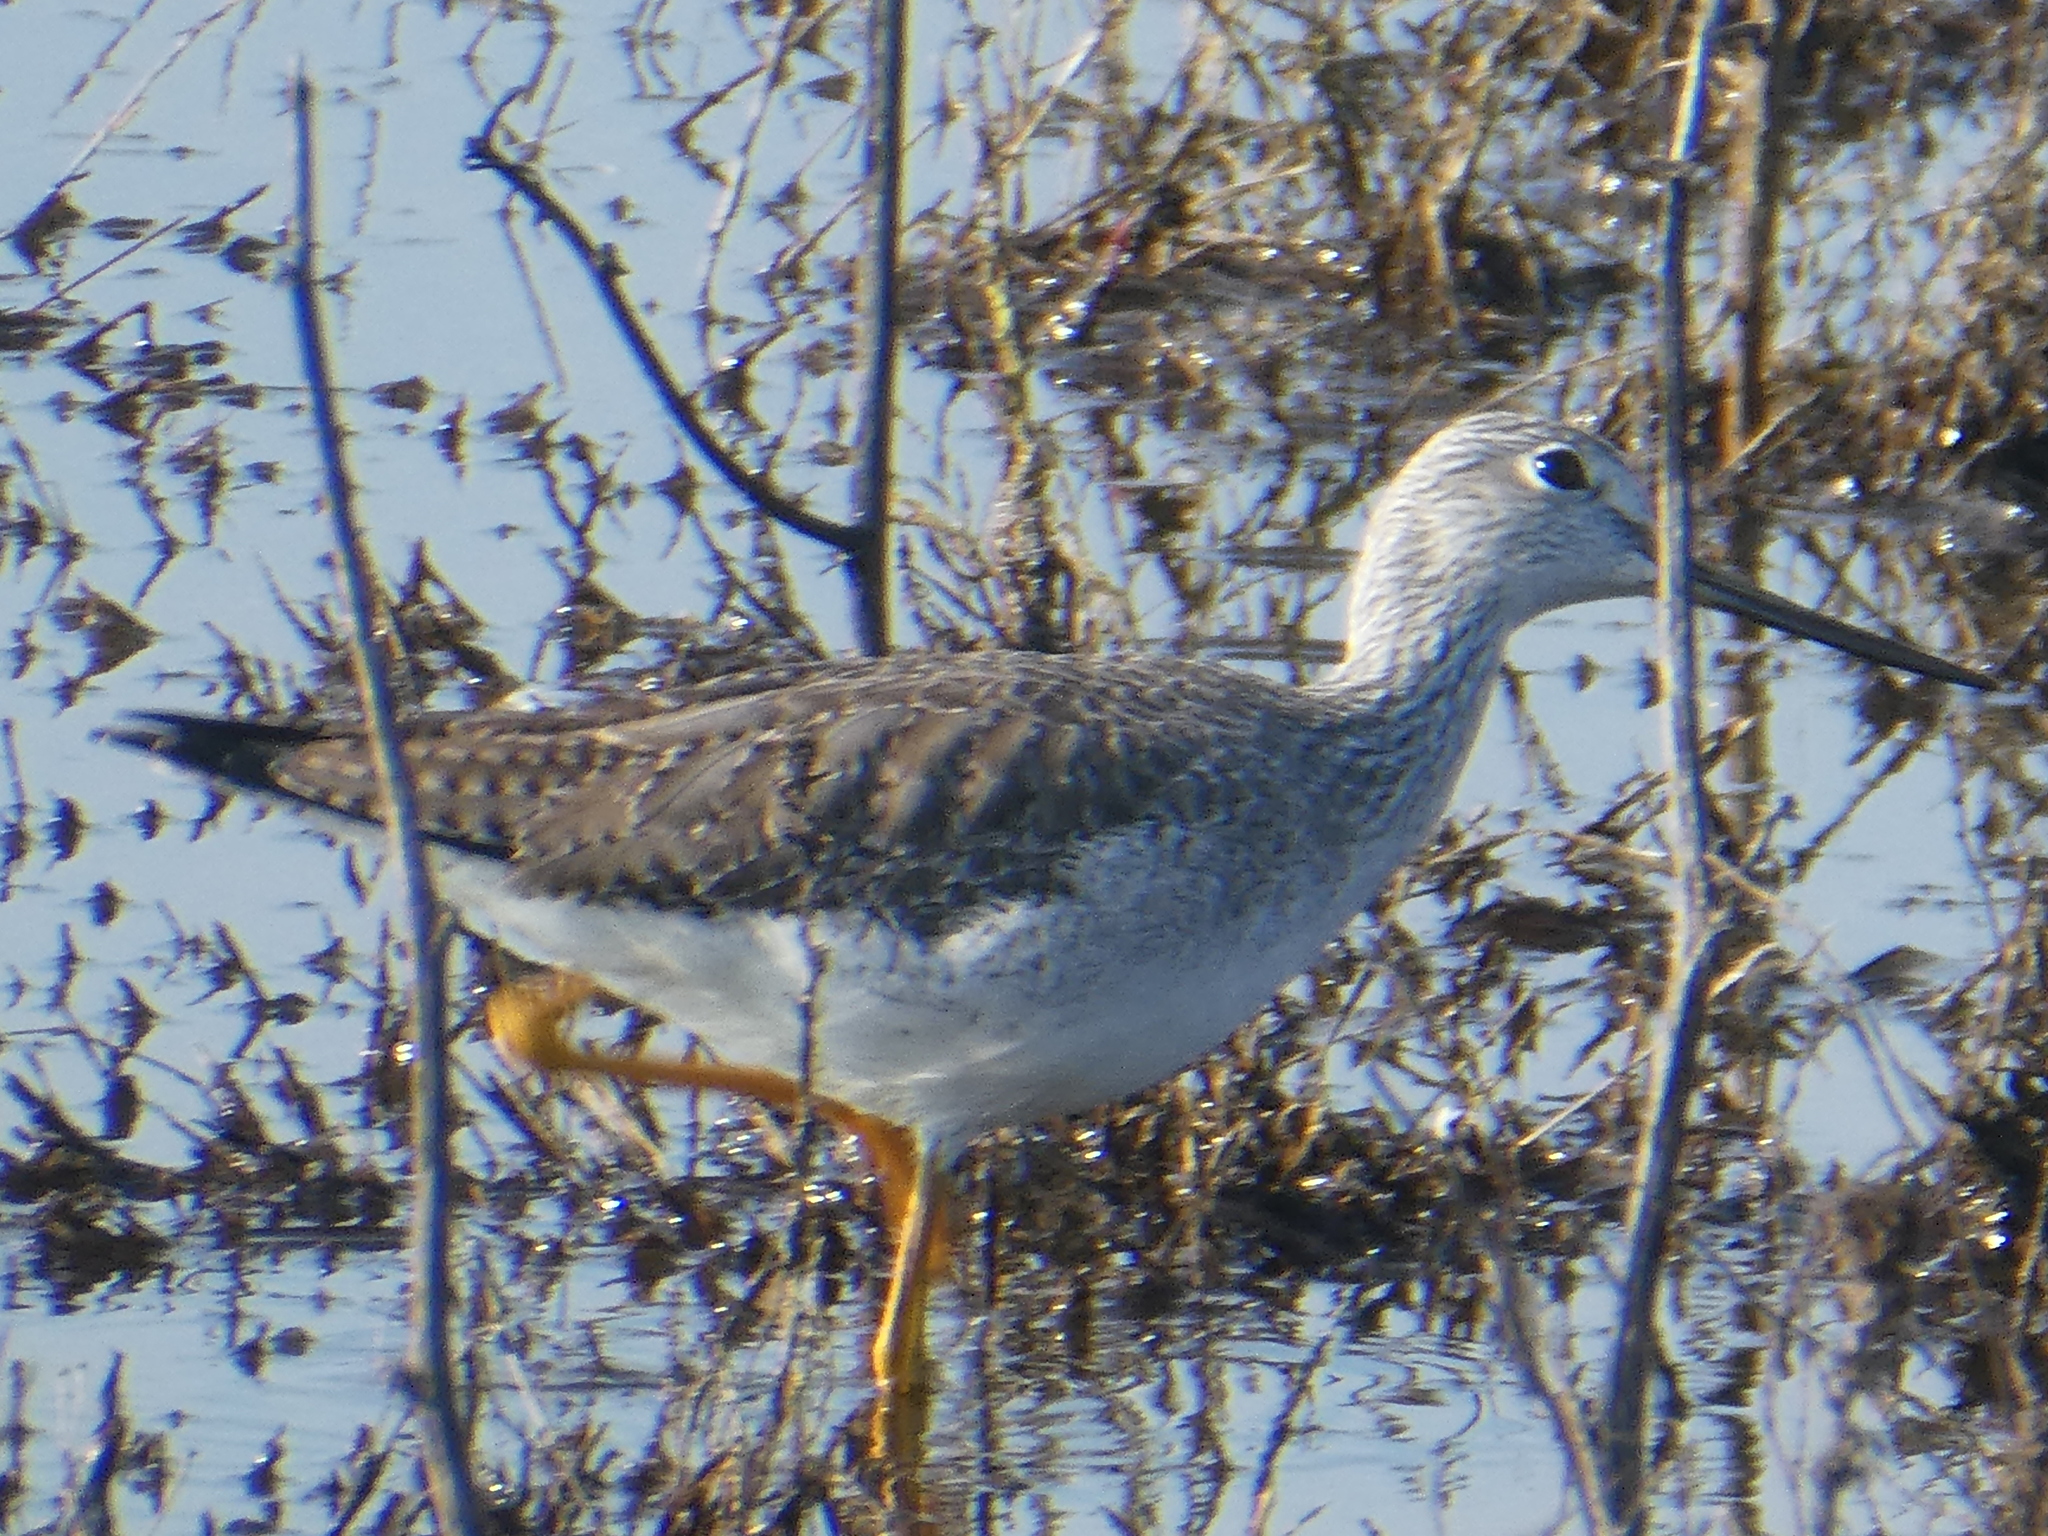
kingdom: Animalia
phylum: Chordata
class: Aves
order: Charadriiformes
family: Scolopacidae
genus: Tringa
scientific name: Tringa melanoleuca
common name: Greater yellowlegs
